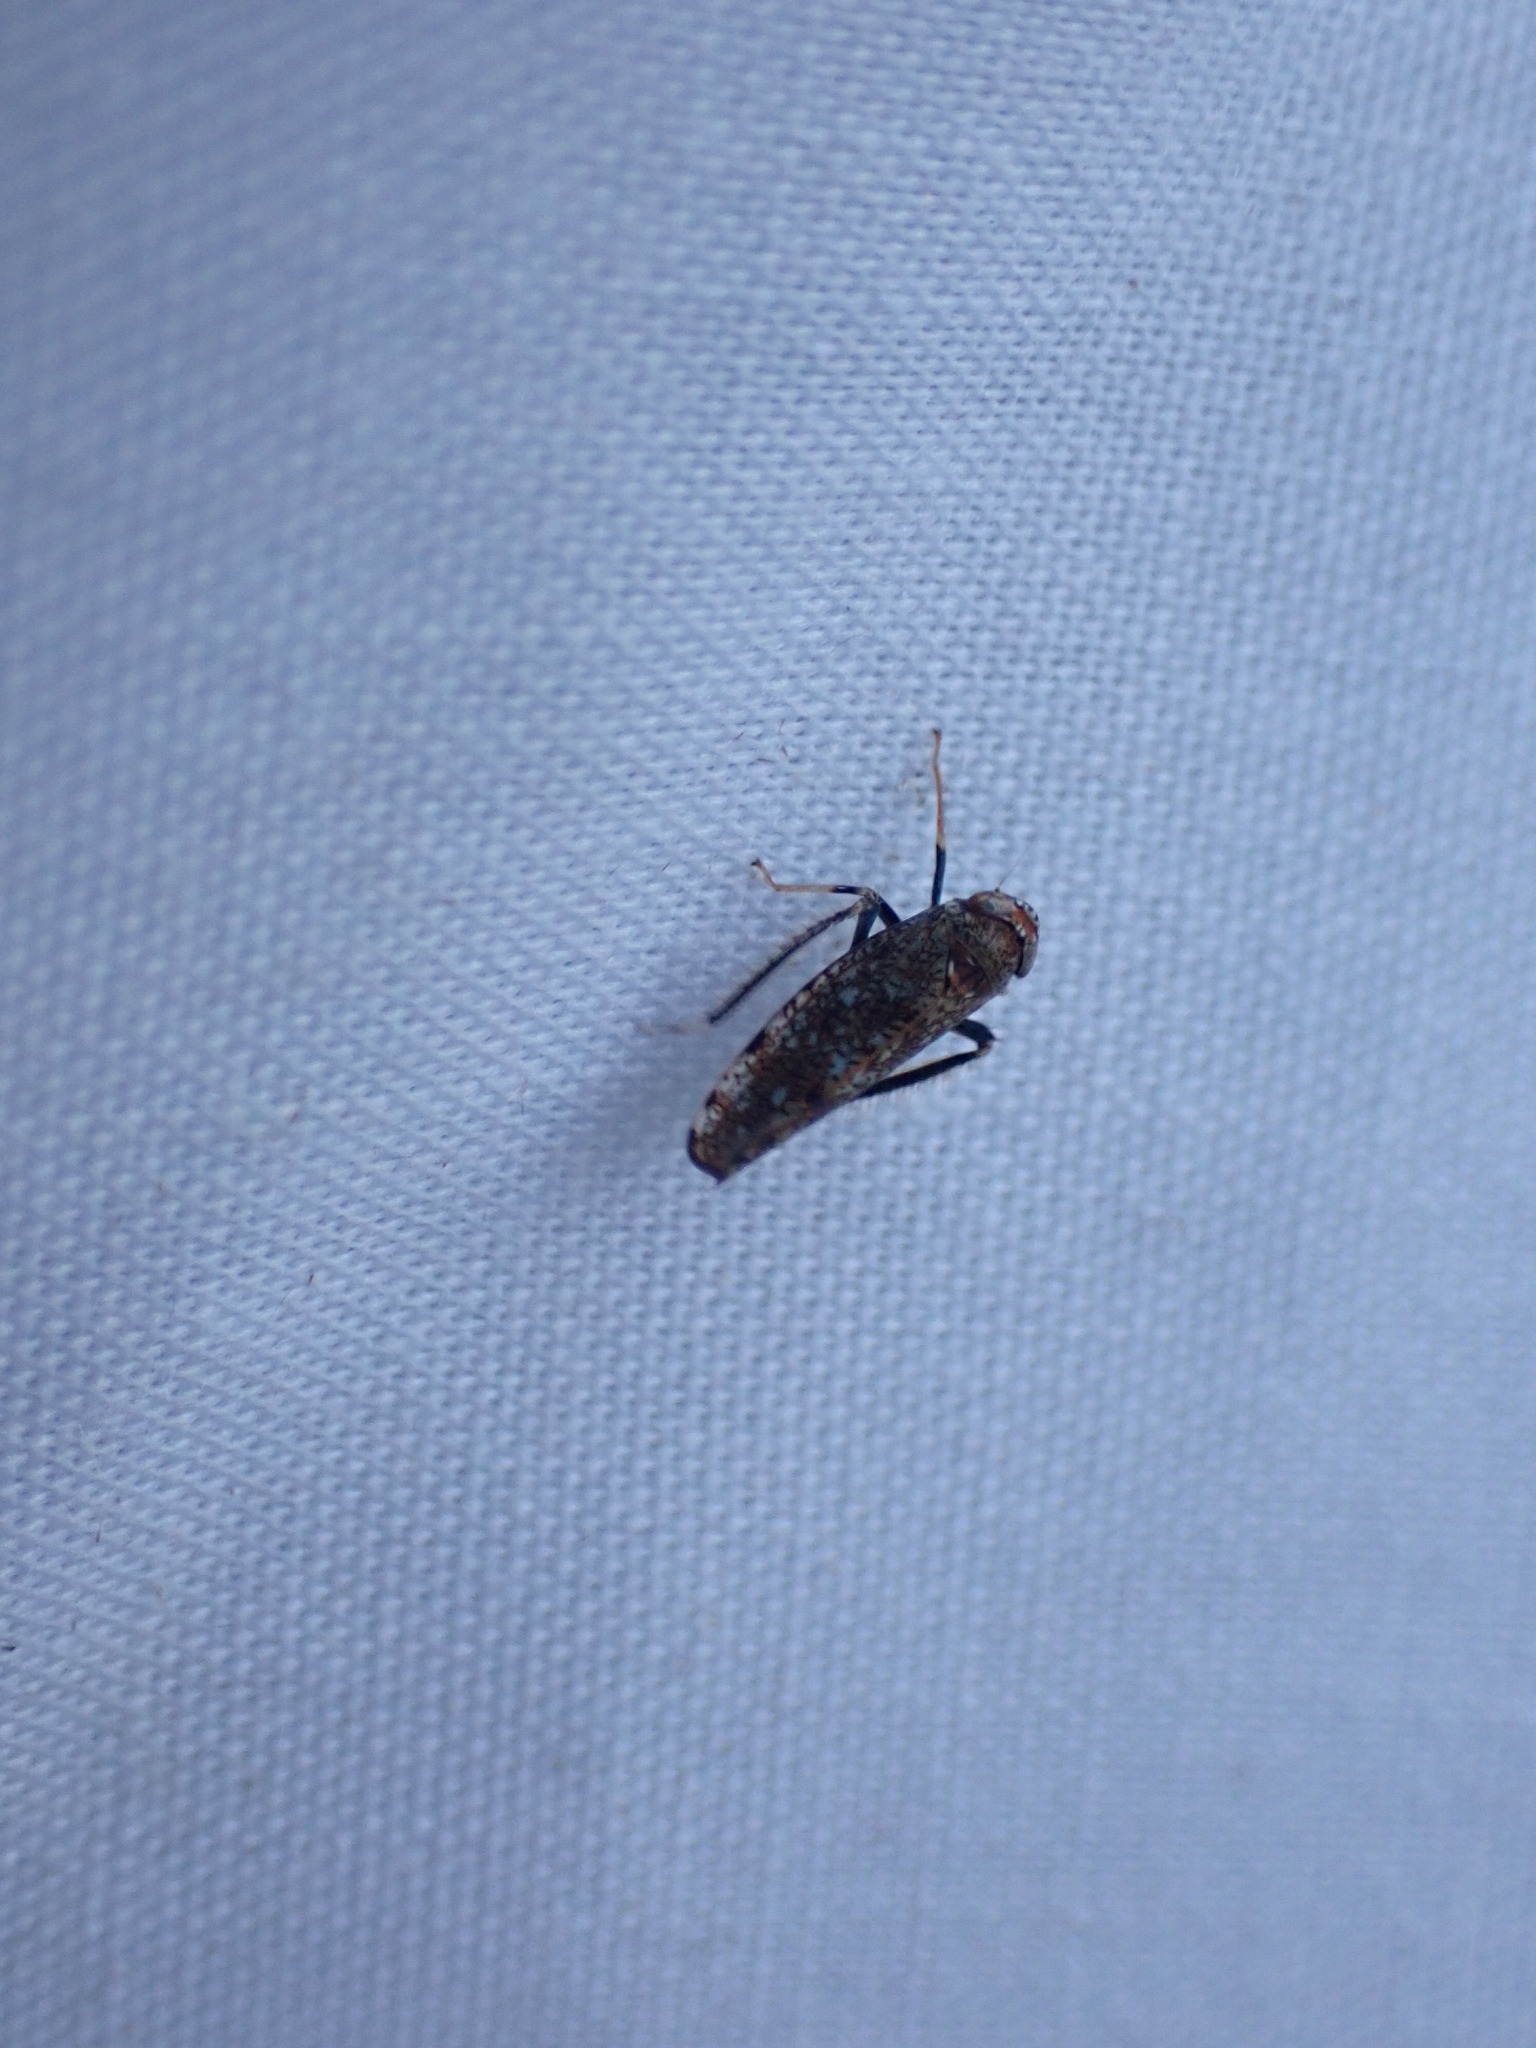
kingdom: Animalia
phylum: Arthropoda
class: Insecta
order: Hemiptera
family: Cicadellidae
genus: Orientus
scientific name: Orientus ishidae
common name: Japanese leafhopper
